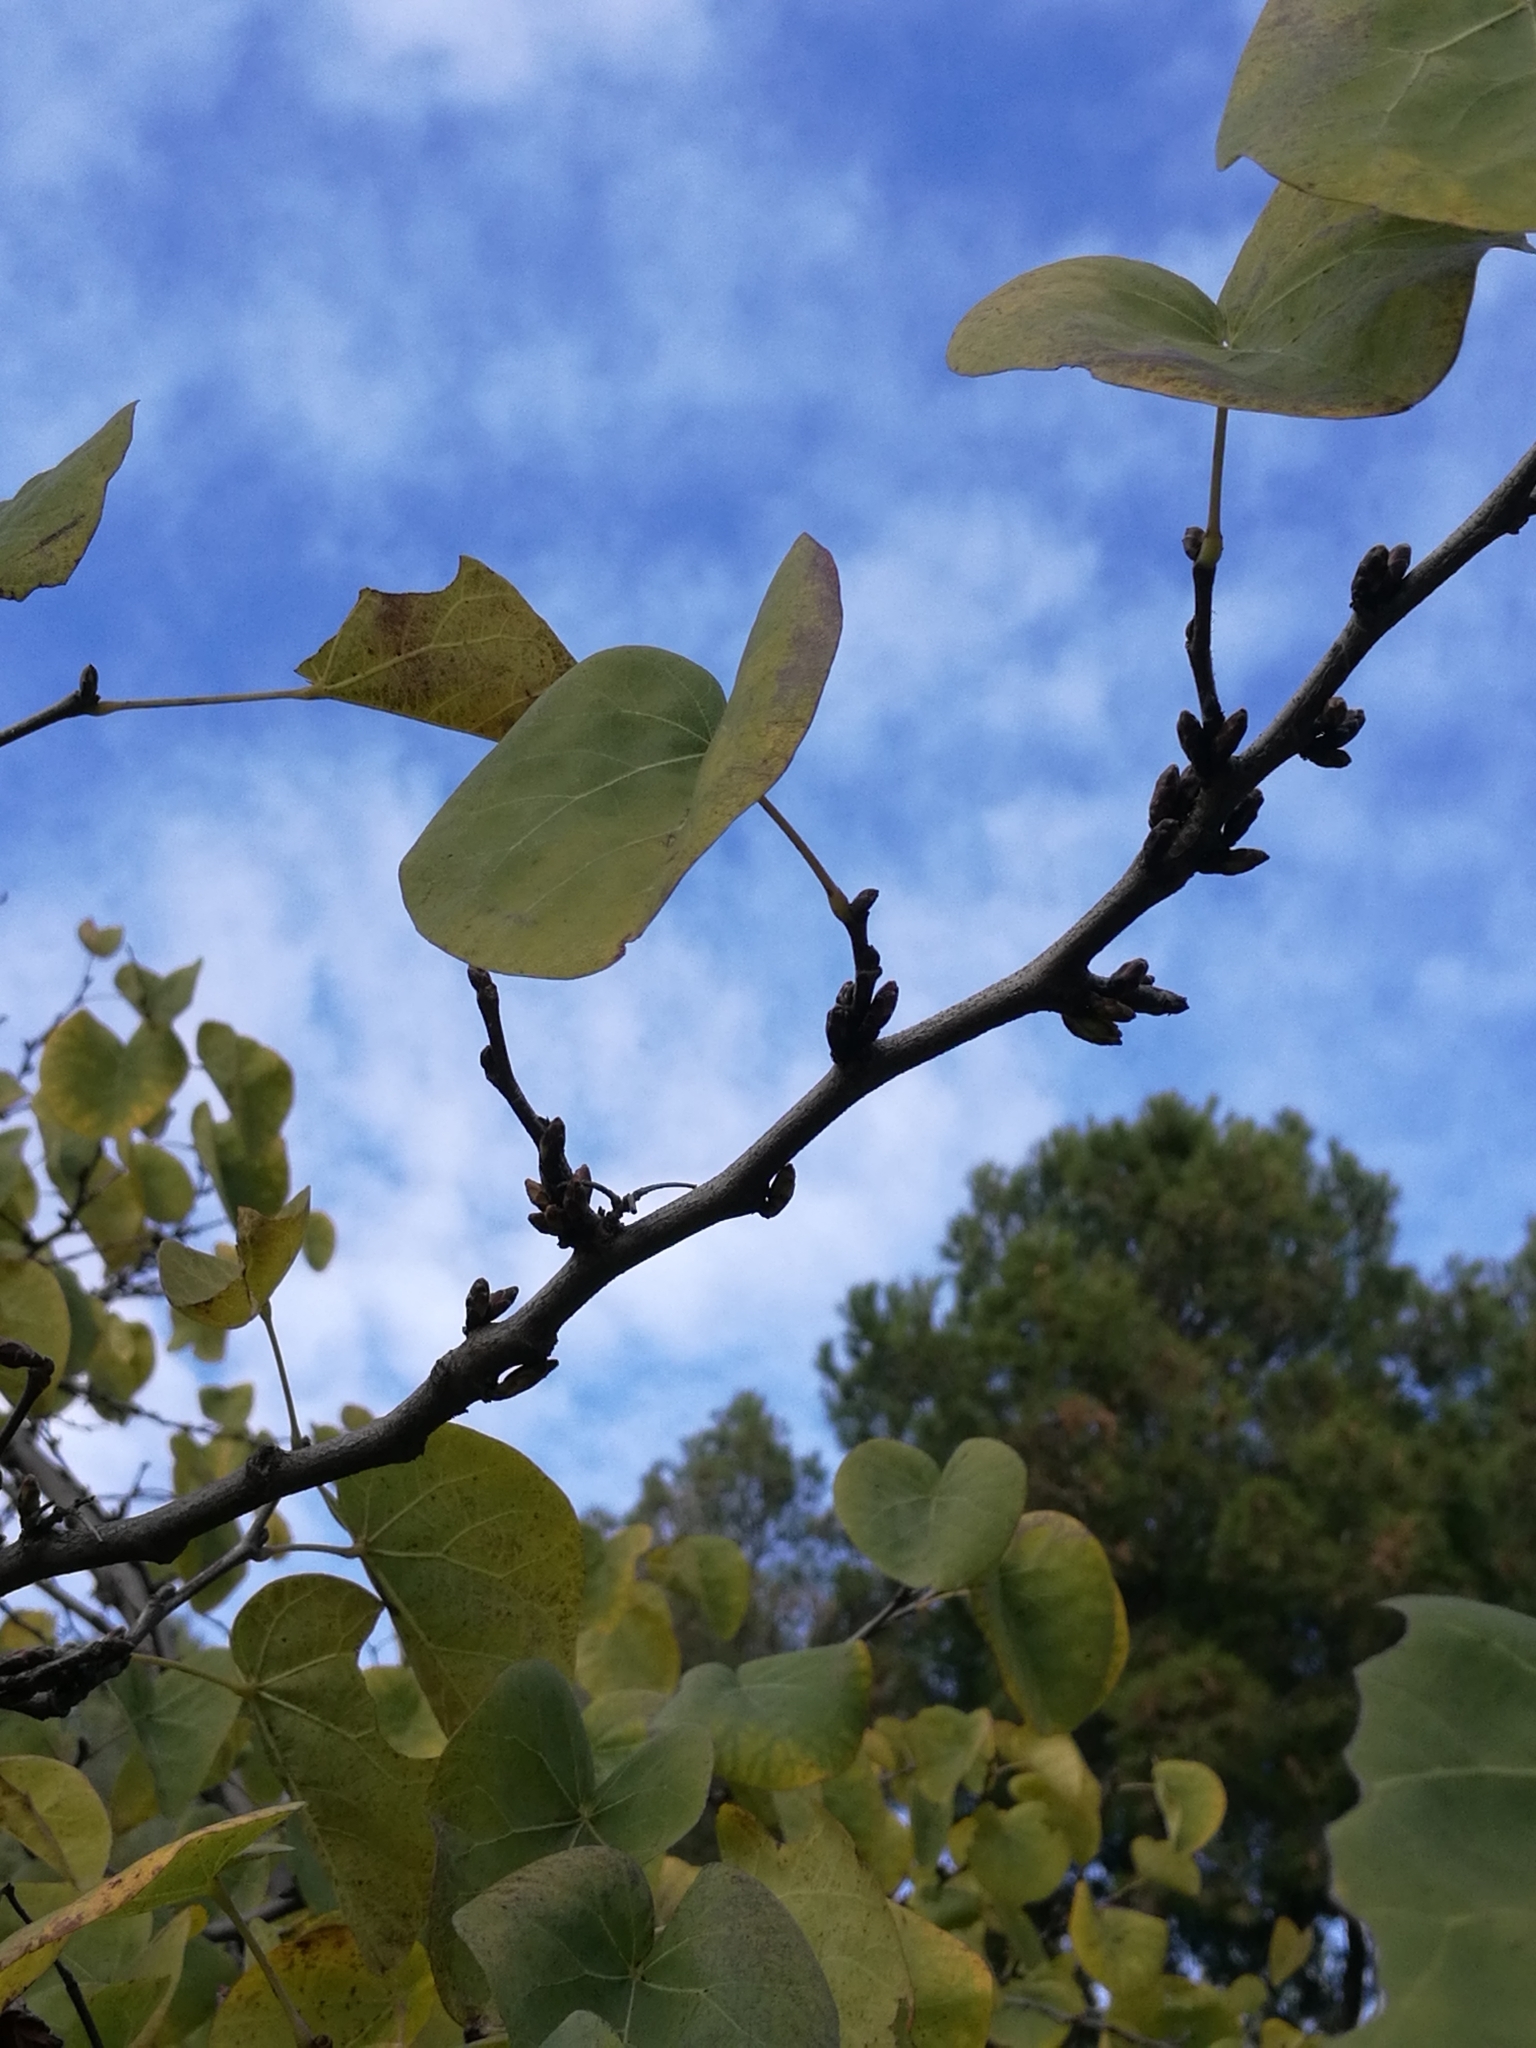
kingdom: Plantae
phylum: Tracheophyta
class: Magnoliopsida
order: Fabales
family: Fabaceae
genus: Cercis
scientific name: Cercis siliquastrum
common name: Judas tree
